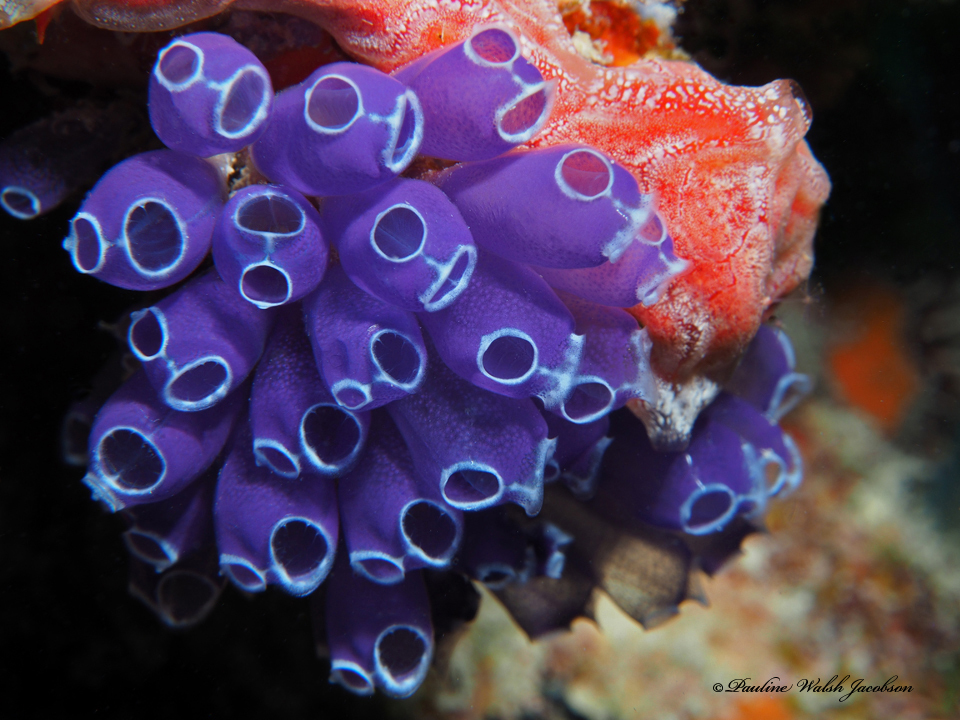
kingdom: Animalia
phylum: Chordata
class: Ascidiacea
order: Aplousobranchia
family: Clavelinidae
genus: Clavelina
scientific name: Clavelina puertosecensis
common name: Blue bell tunicate
